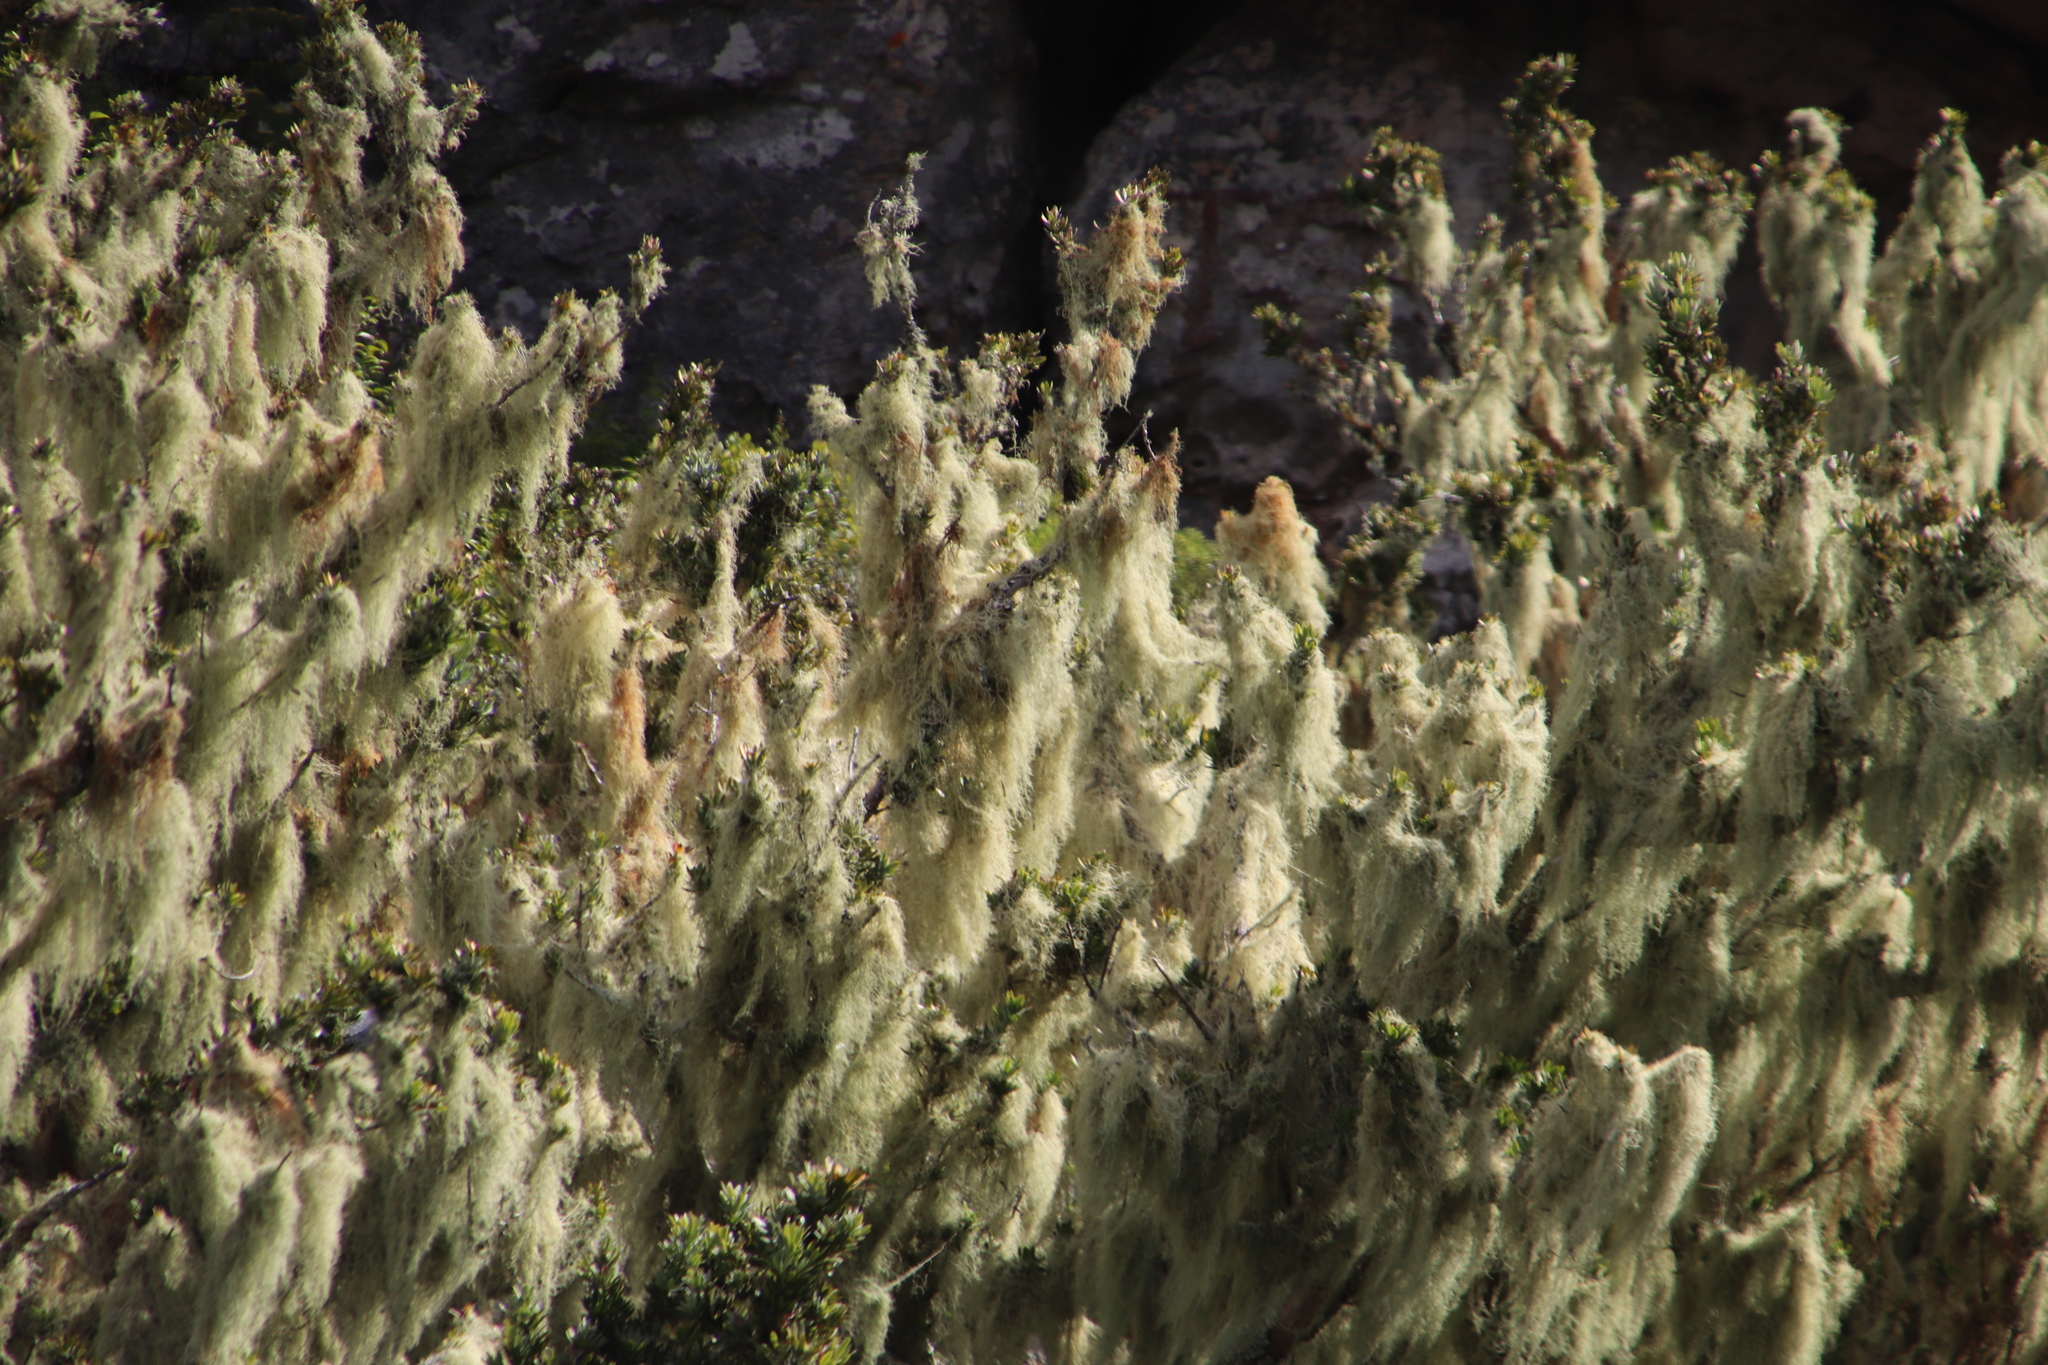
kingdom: Plantae
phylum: Tracheophyta
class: Pinopsida
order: Pinales
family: Podocarpaceae
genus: Podocarpus
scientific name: Podocarpus latifolius
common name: True yellowwood
